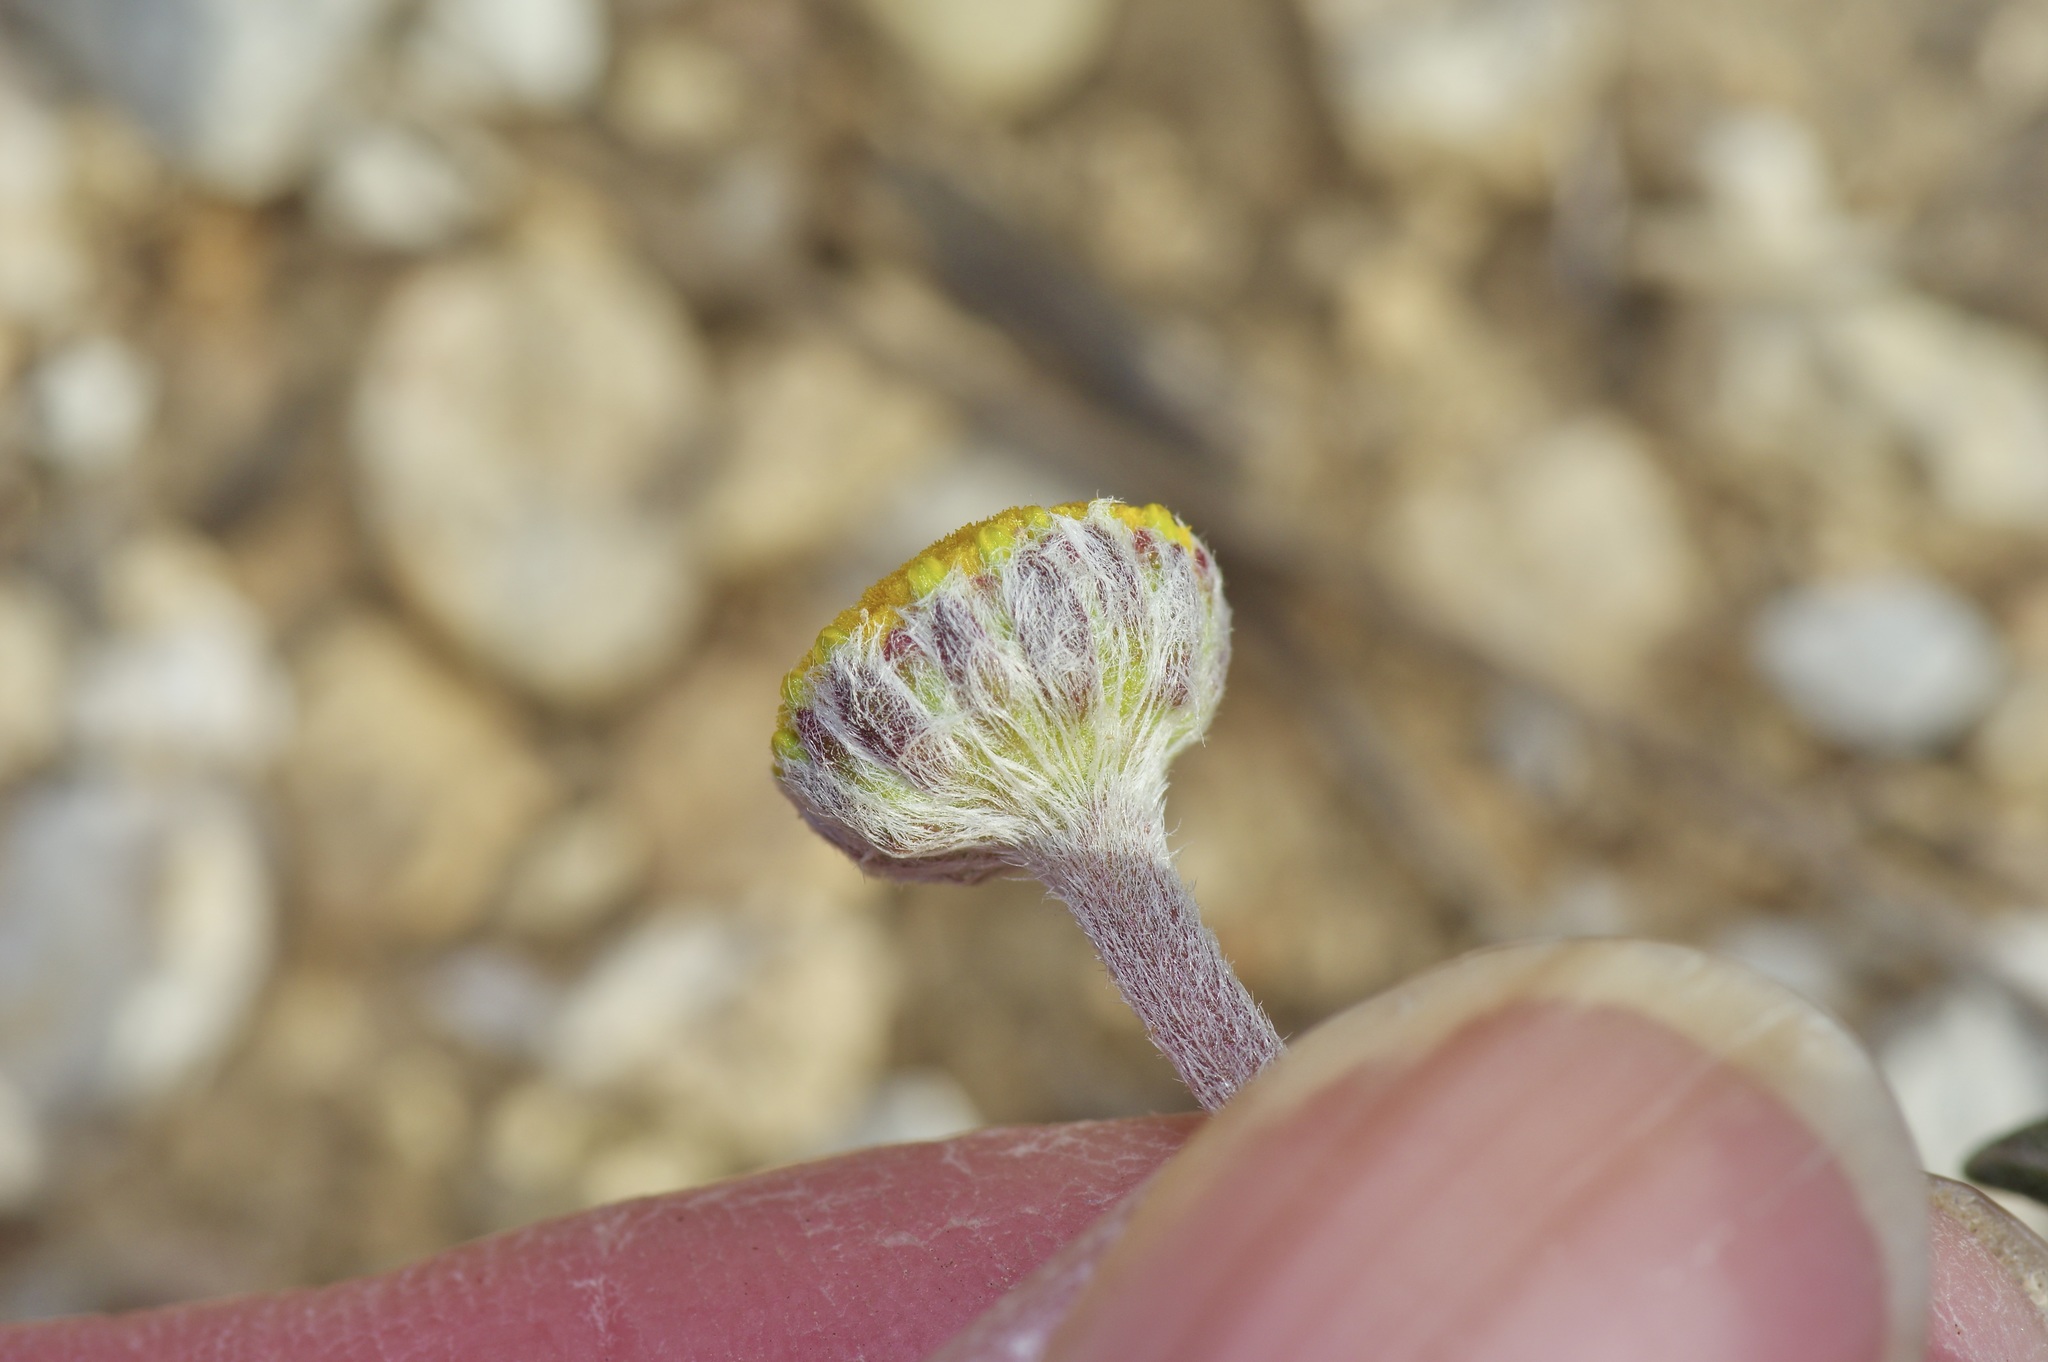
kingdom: Plantae
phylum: Tracheophyta
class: Magnoliopsida
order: Asterales
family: Asteraceae
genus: Tetraneuris
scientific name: Tetraneuris scaposa
